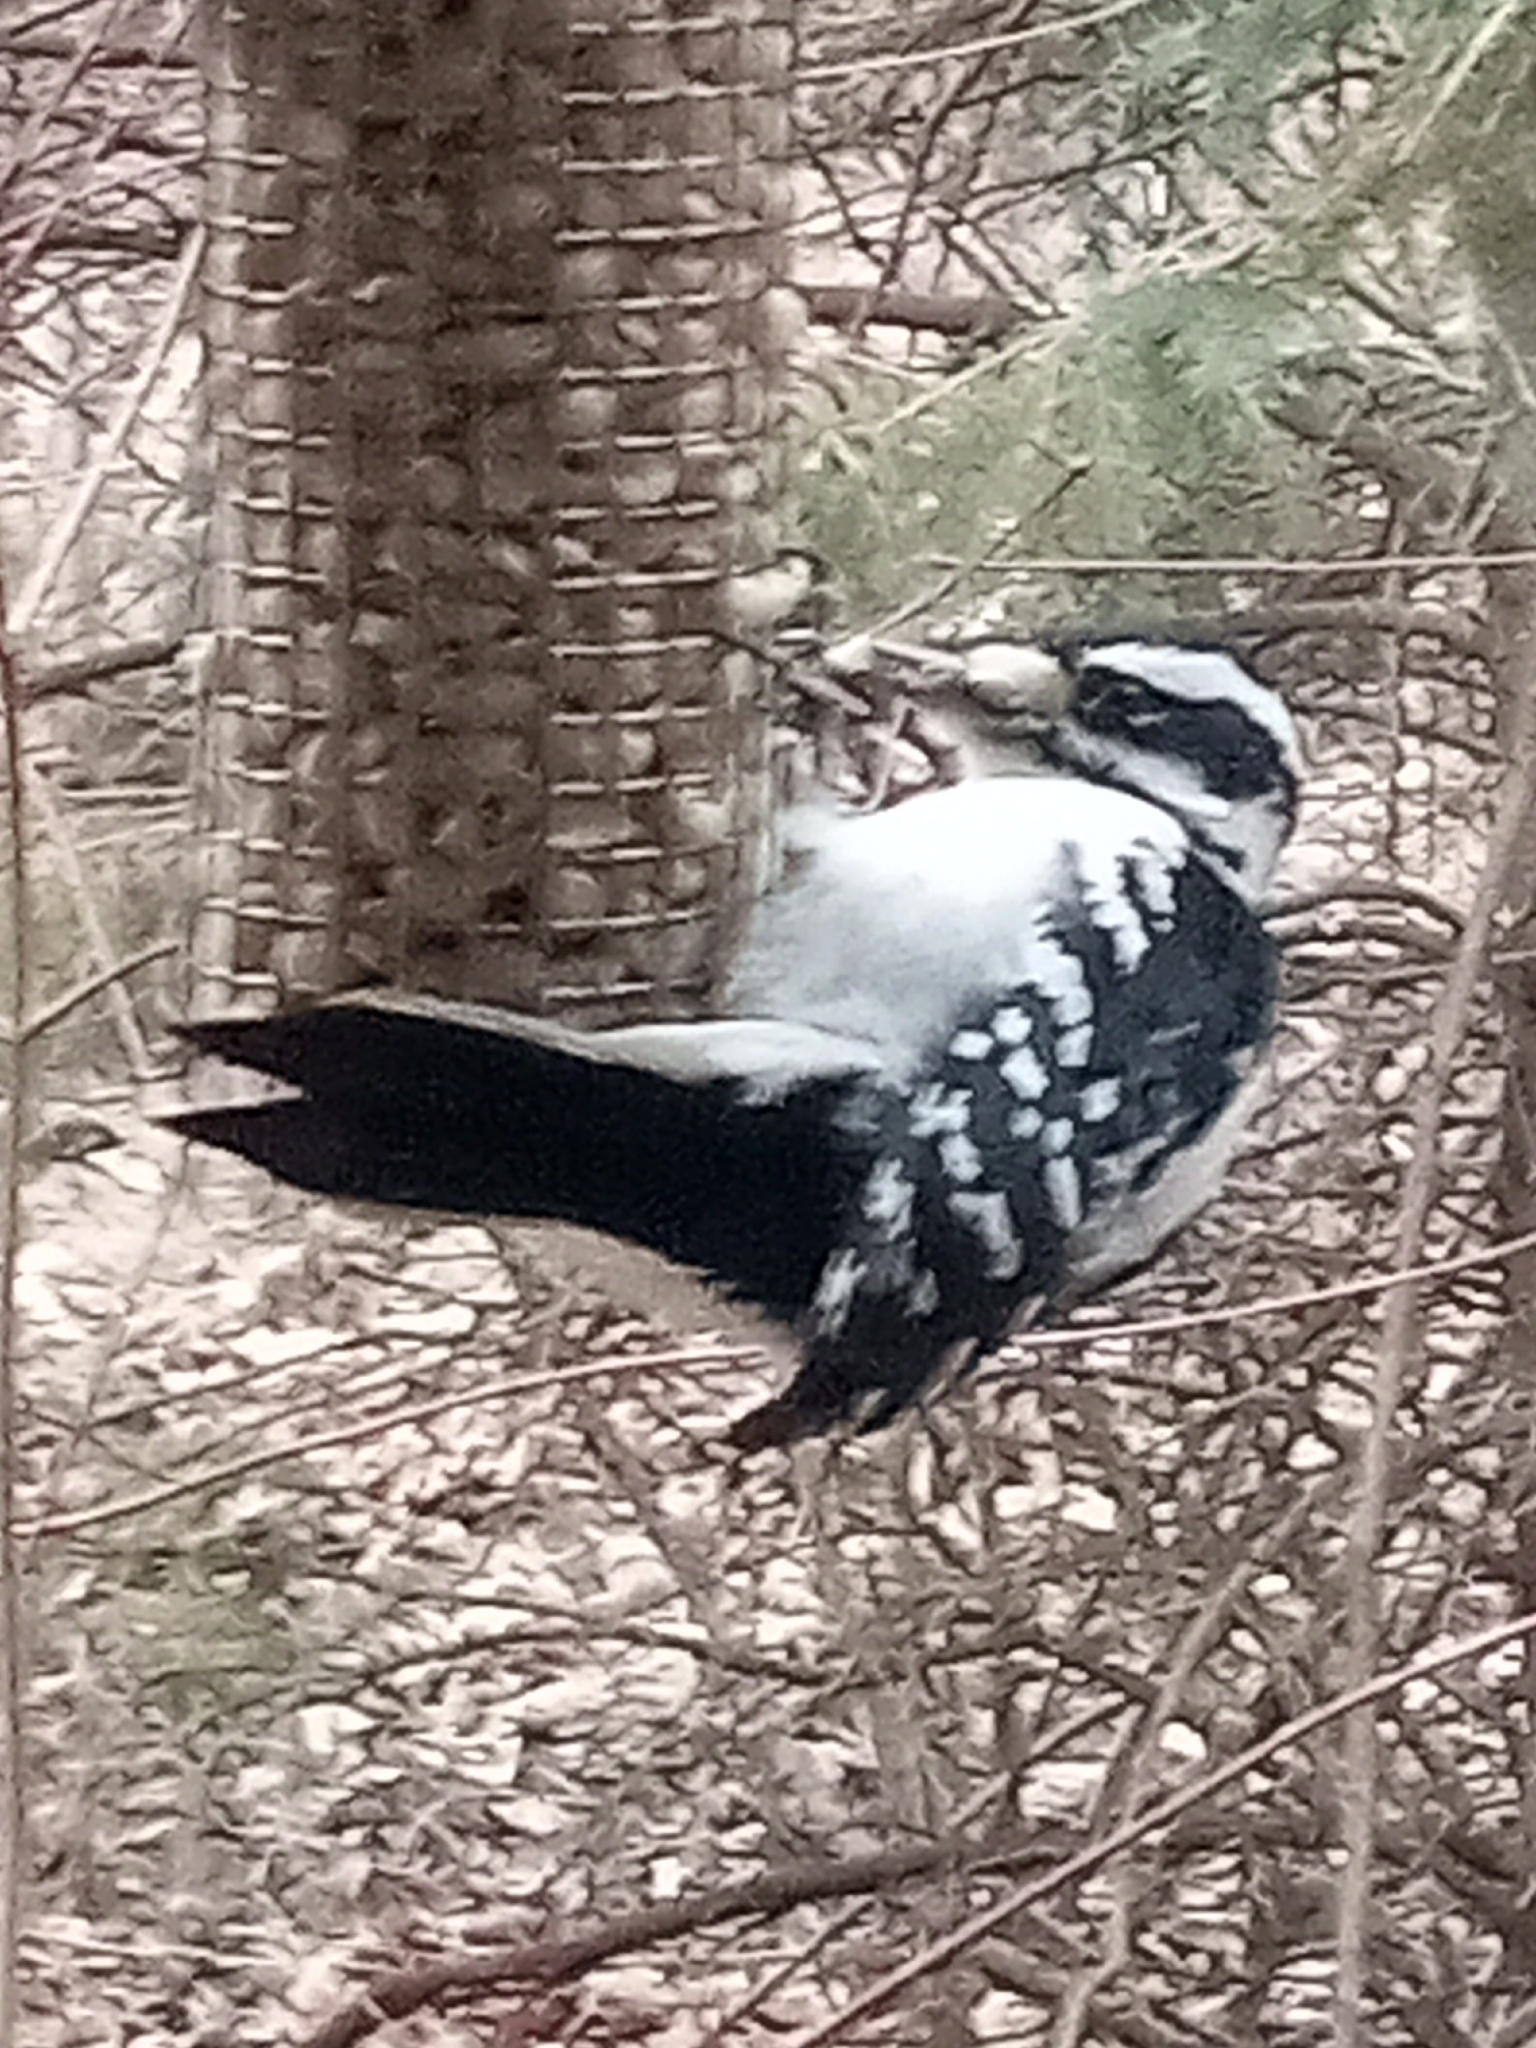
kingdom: Animalia
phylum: Chordata
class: Aves
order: Piciformes
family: Picidae
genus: Leuconotopicus
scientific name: Leuconotopicus villosus
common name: Hairy woodpecker
